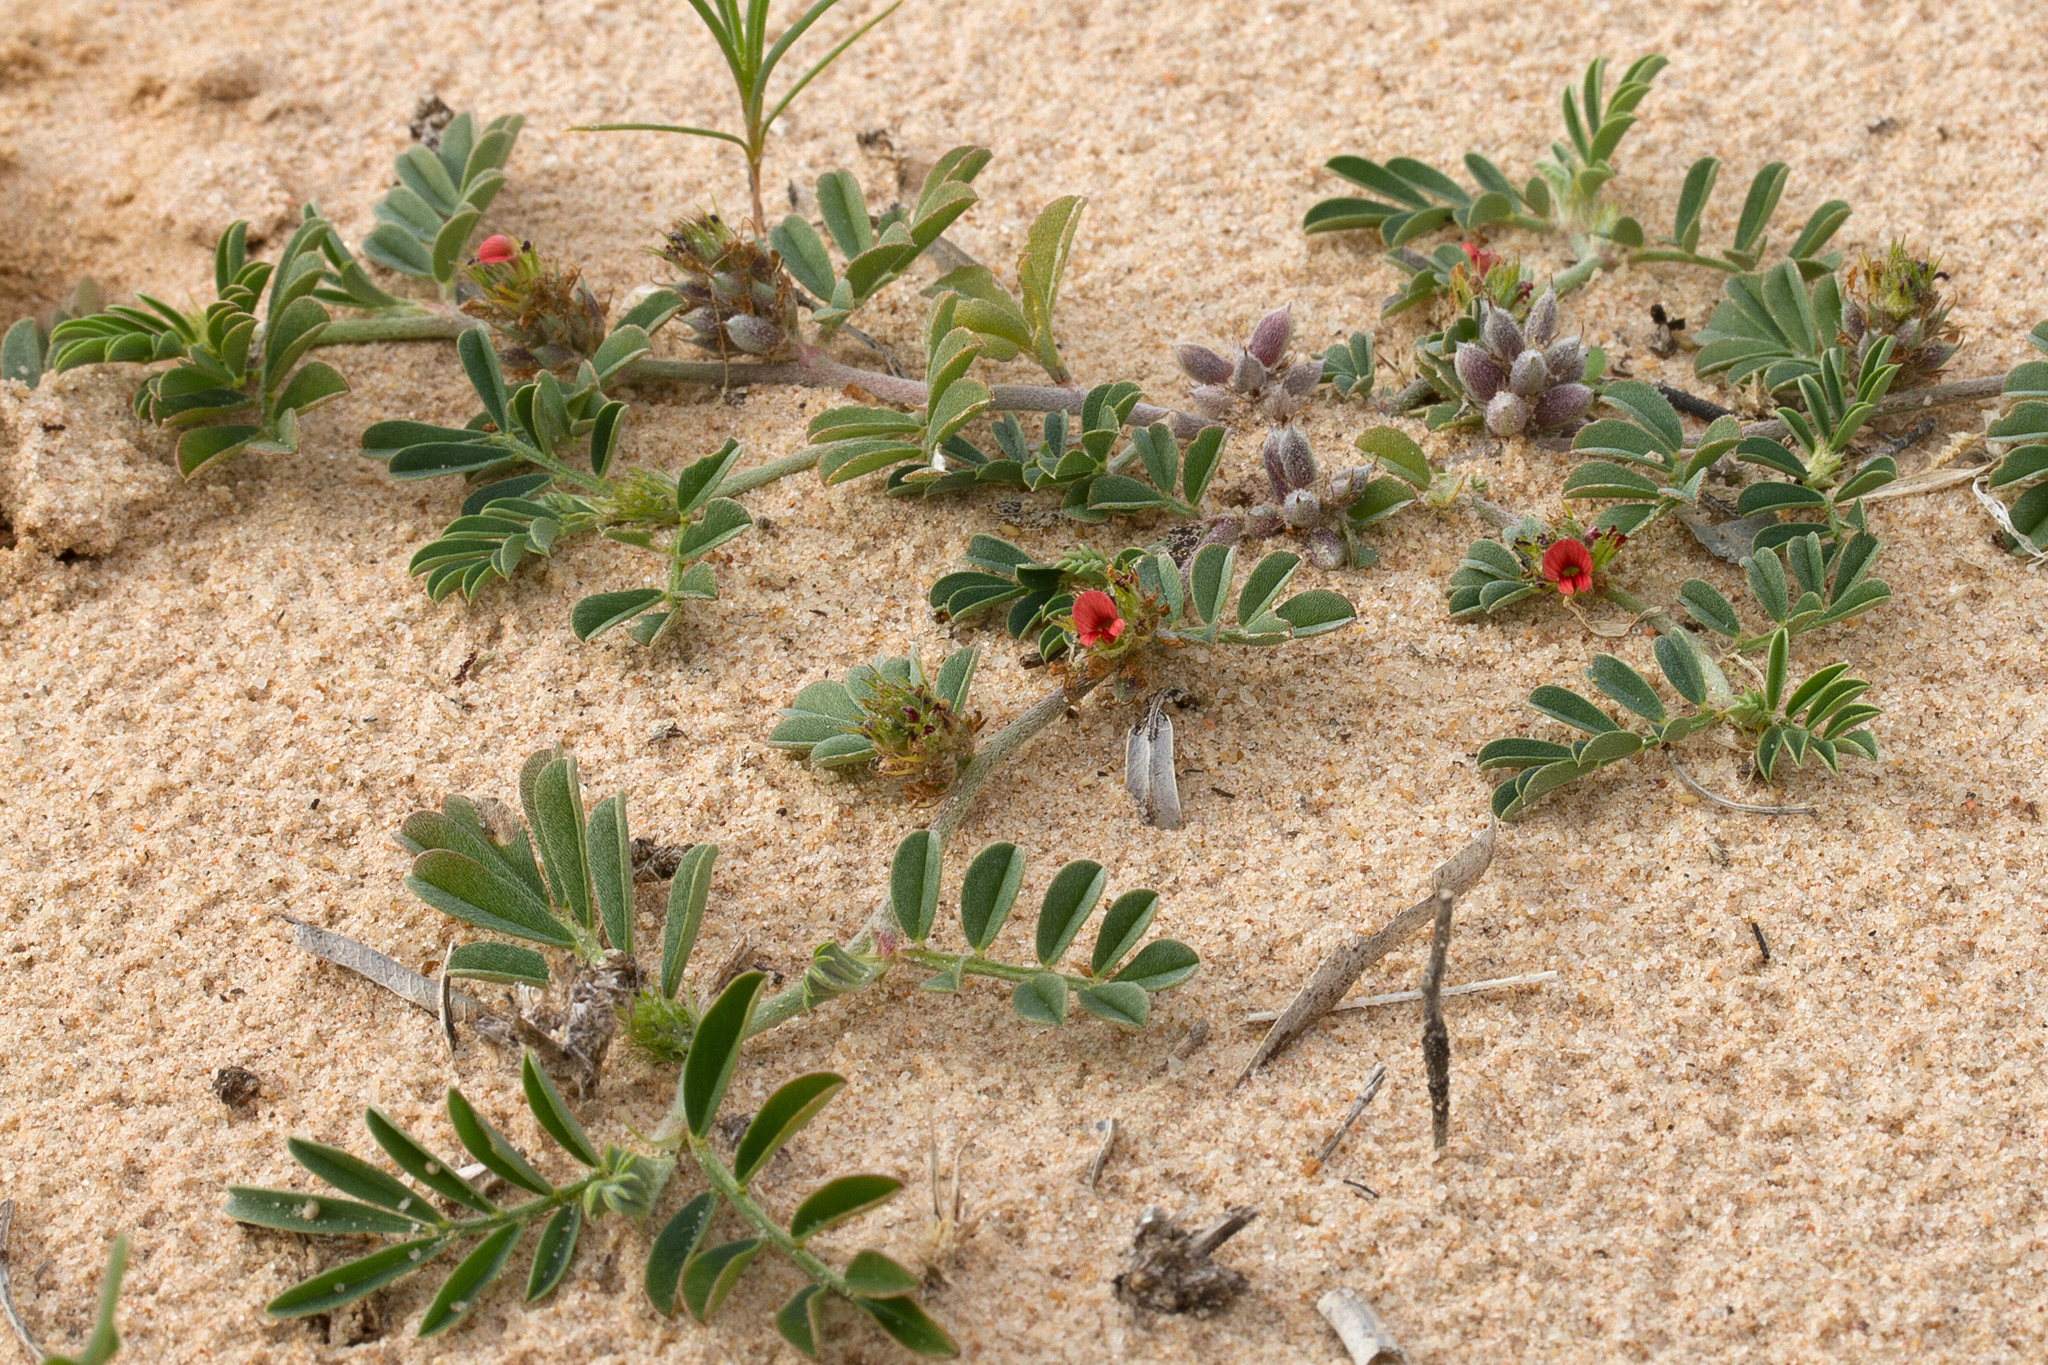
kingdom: Plantae
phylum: Tracheophyta
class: Magnoliopsida
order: Fabales
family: Fabaceae
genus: Indigofera
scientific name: Indigofera linnaei
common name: Nine-leaf indigo
